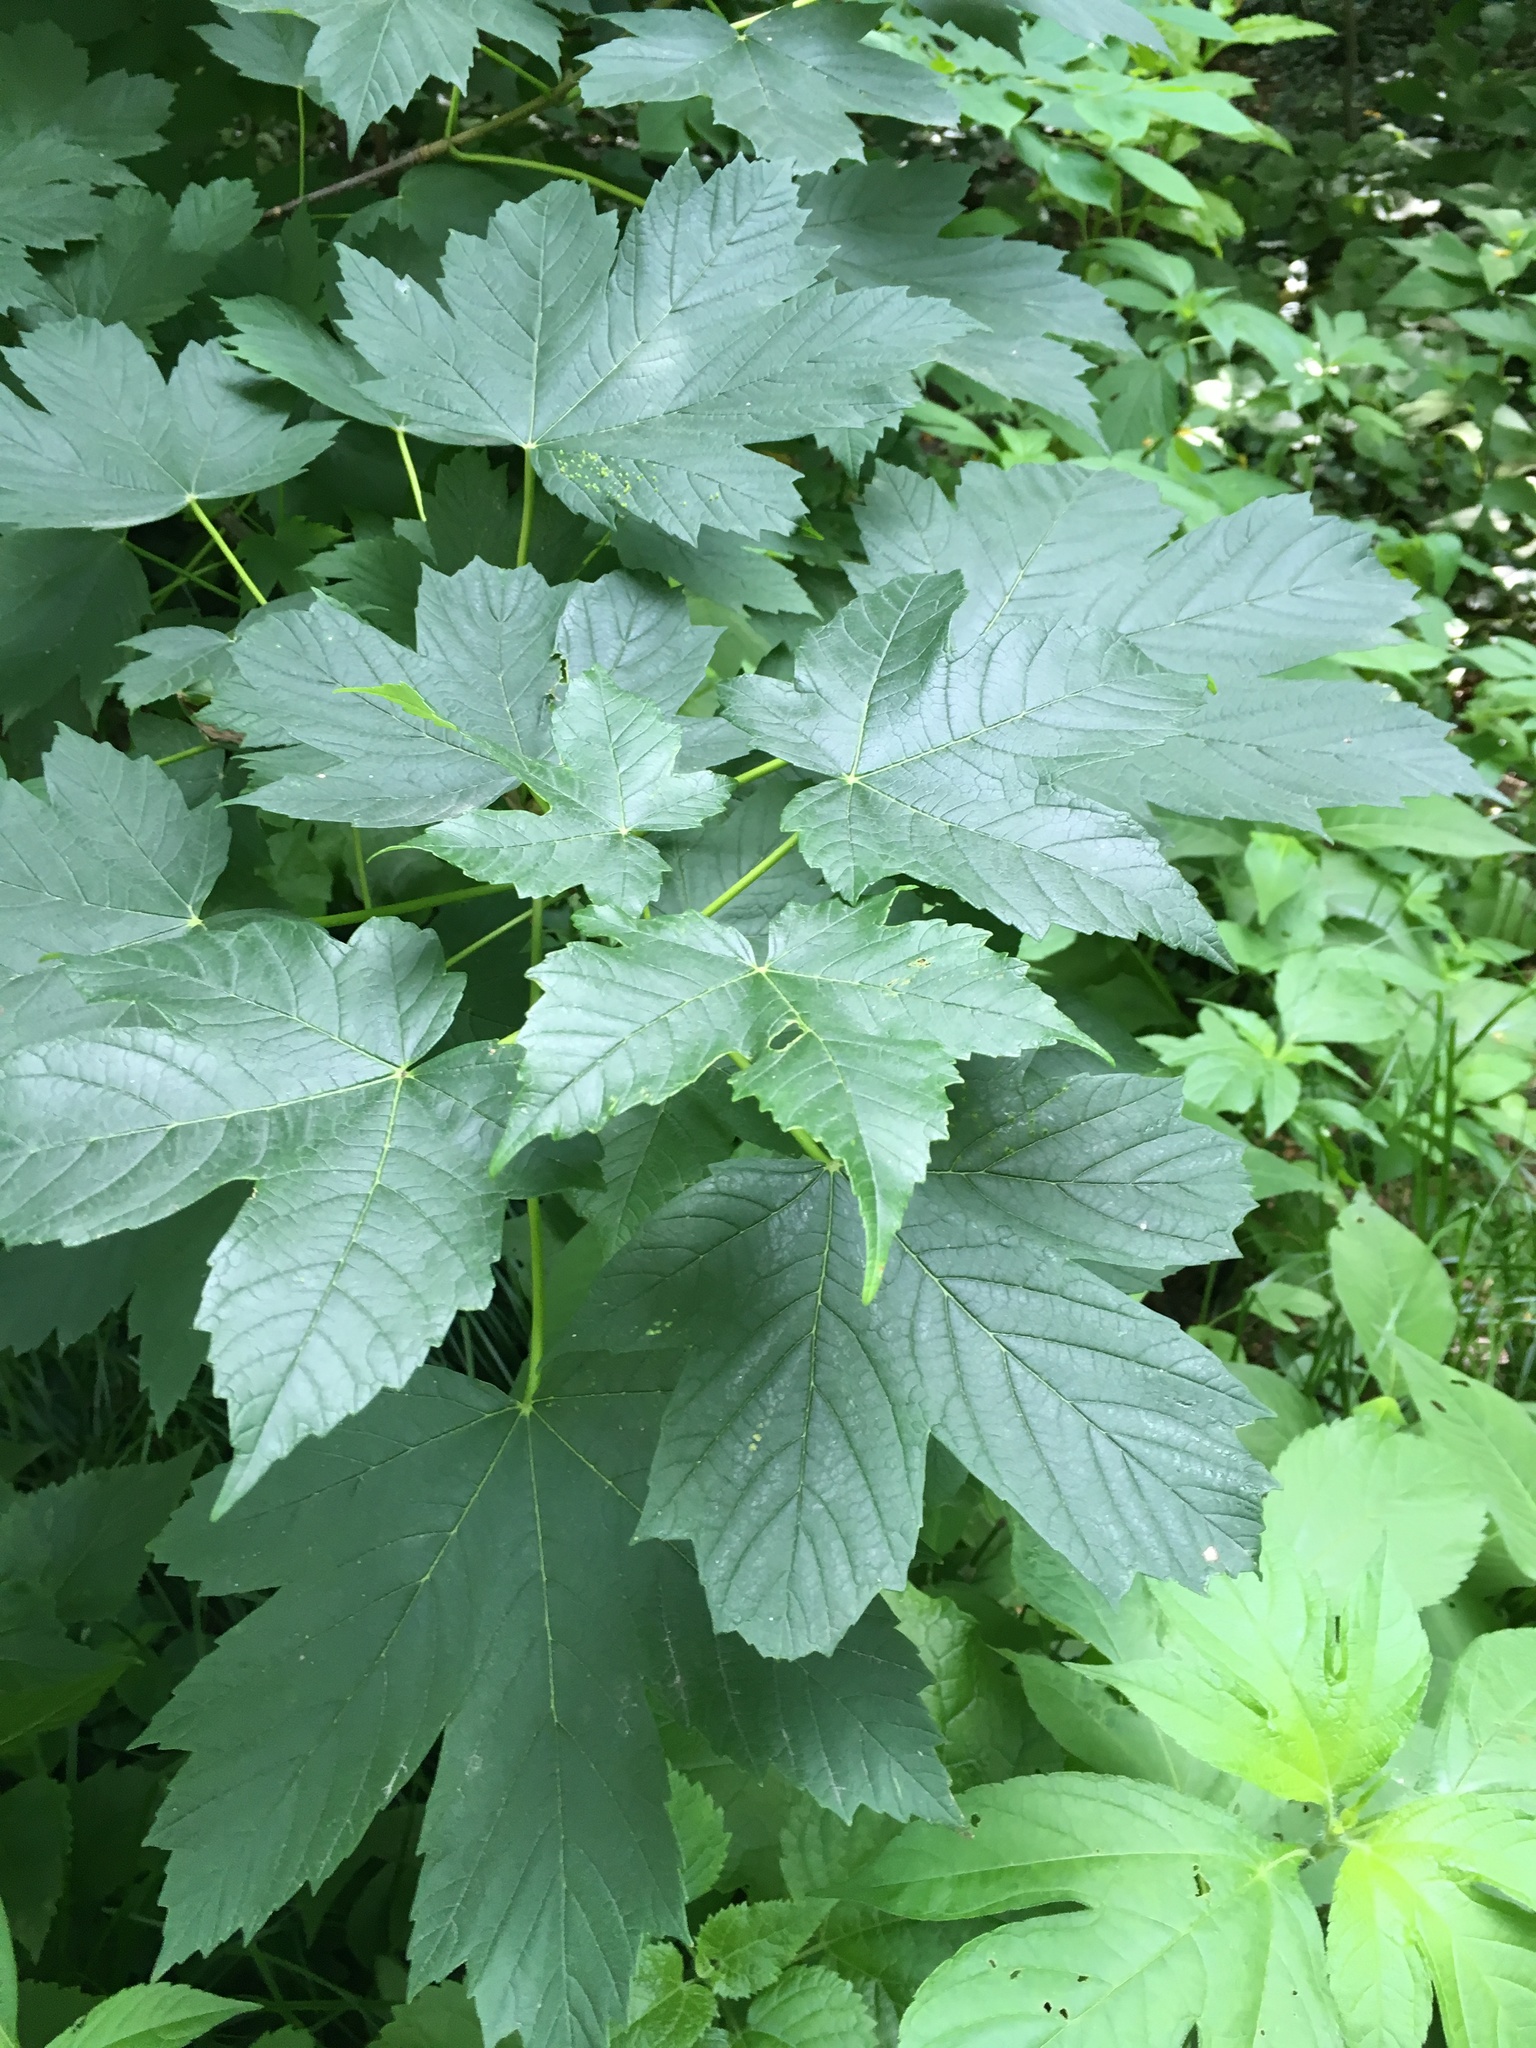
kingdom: Plantae
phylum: Tracheophyta
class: Magnoliopsida
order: Sapindales
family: Sapindaceae
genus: Acer
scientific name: Acer pseudoplatanus
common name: Sycamore
